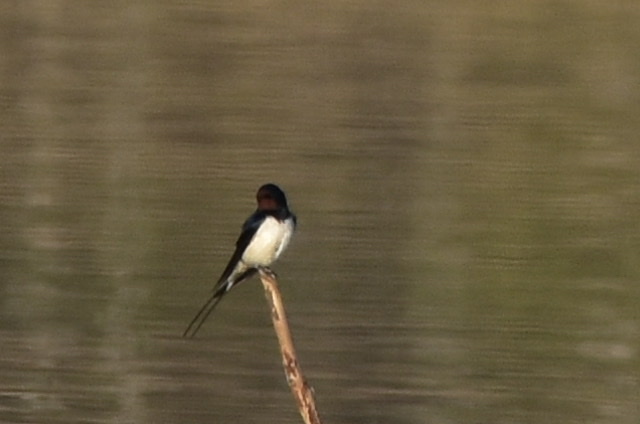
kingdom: Animalia
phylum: Chordata
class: Aves
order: Passeriformes
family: Hirundinidae
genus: Hirundo
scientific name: Hirundo rustica
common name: Barn swallow
